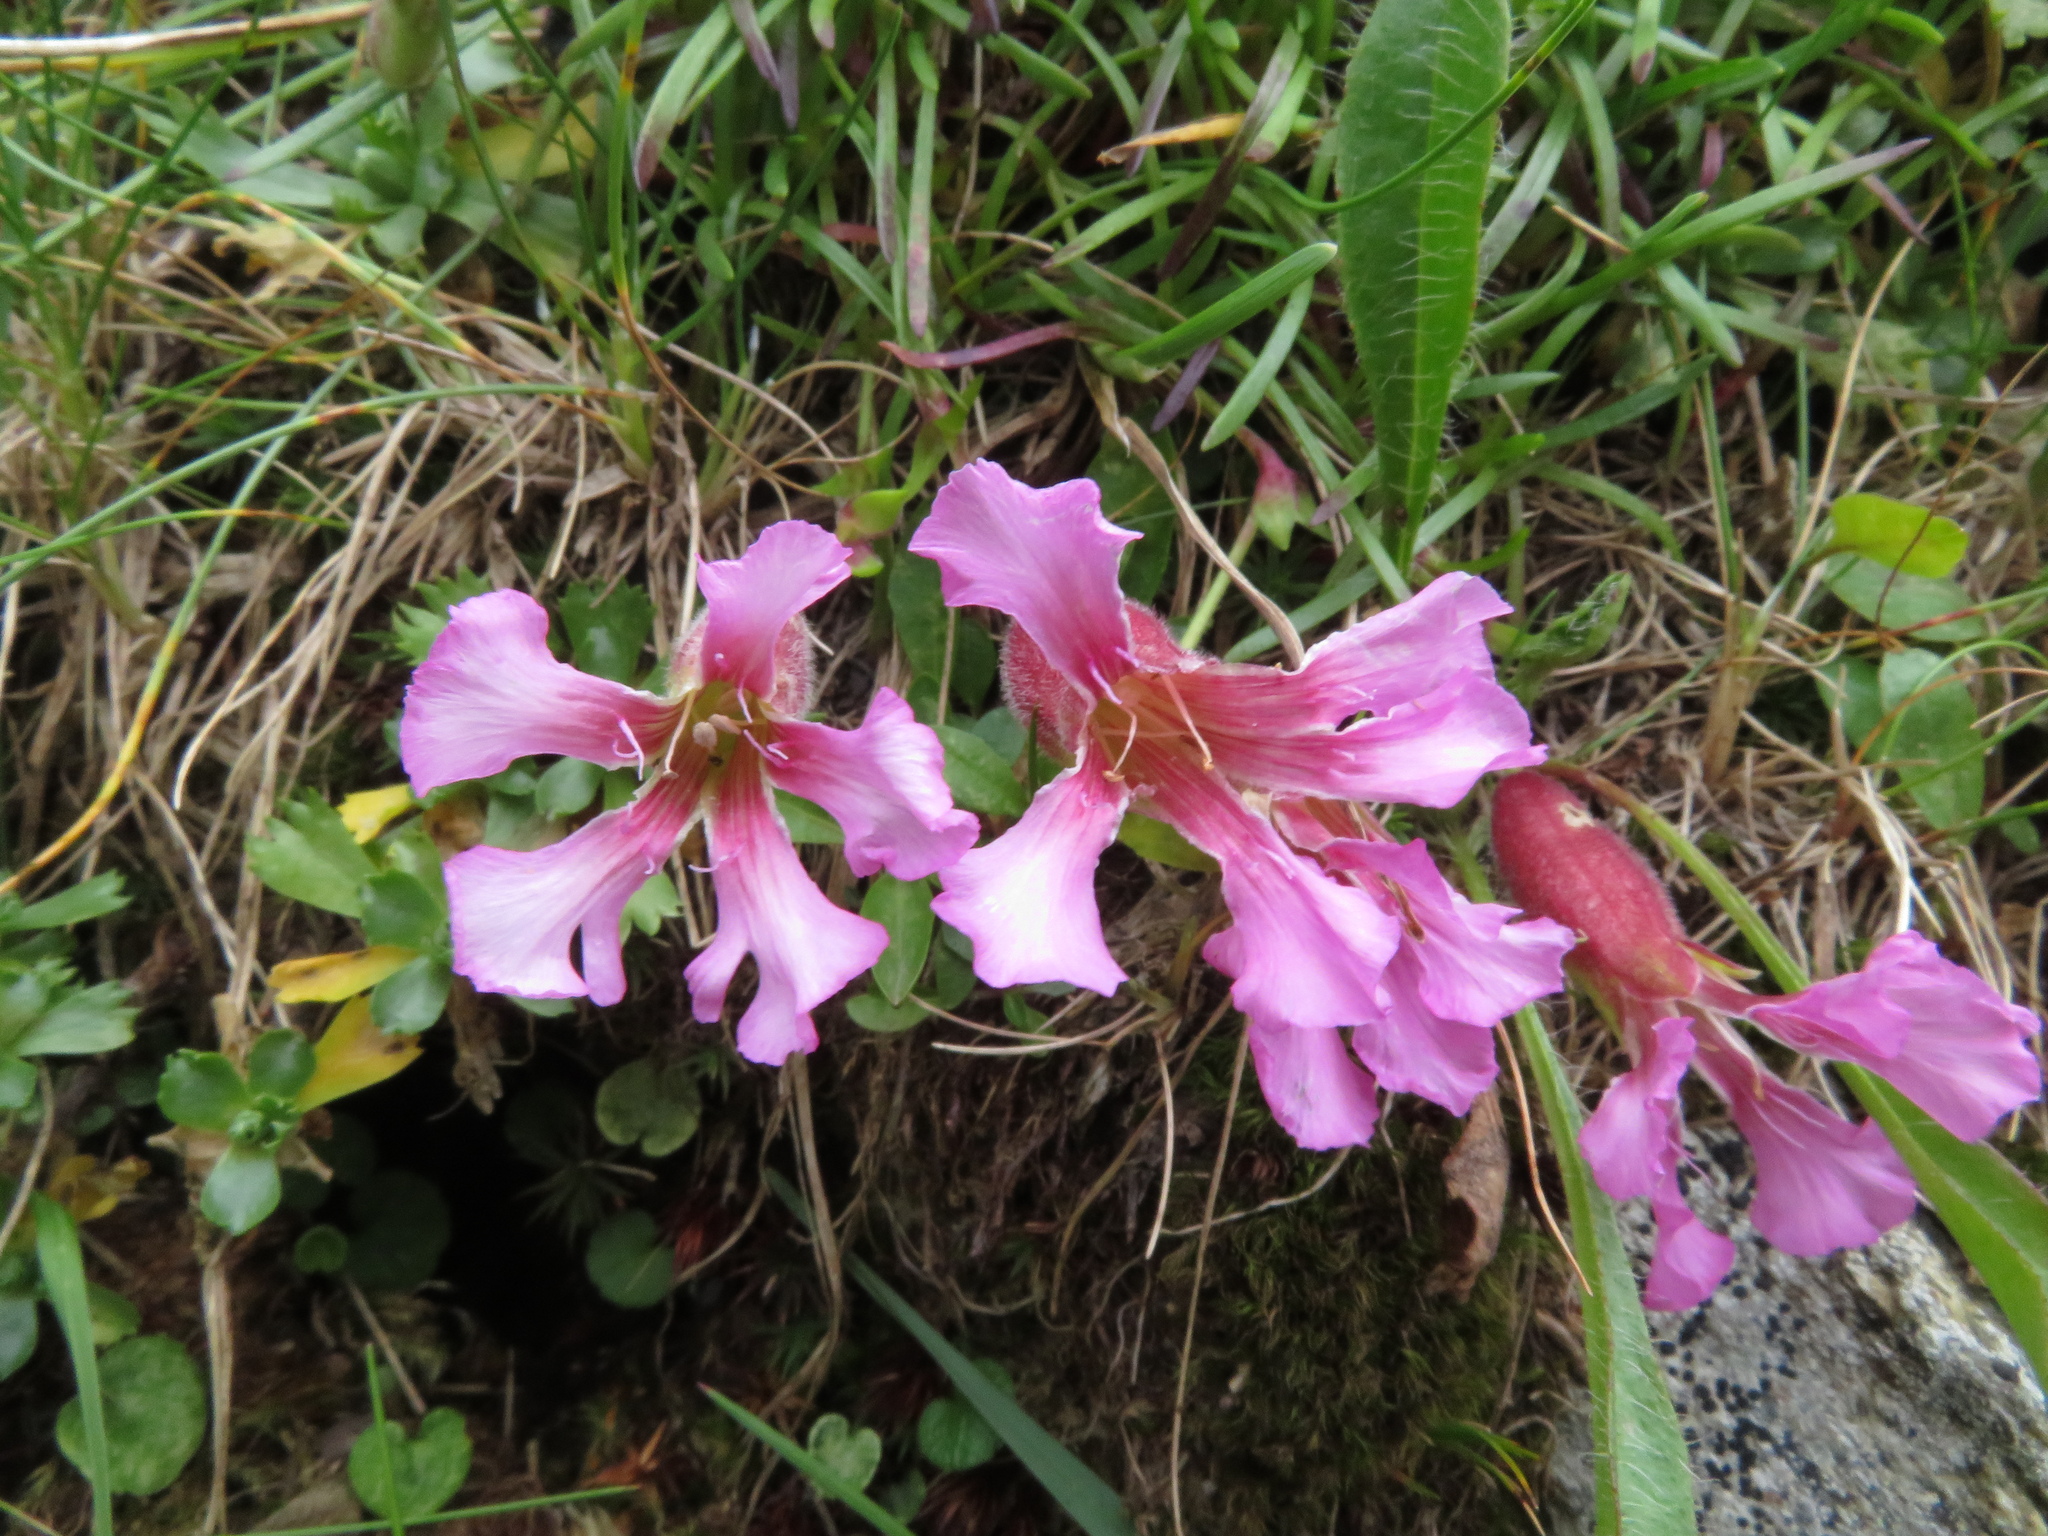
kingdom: Plantae
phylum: Tracheophyta
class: Magnoliopsida
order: Caryophyllales
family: Caryophyllaceae
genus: Saponaria
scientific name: Saponaria pumila
